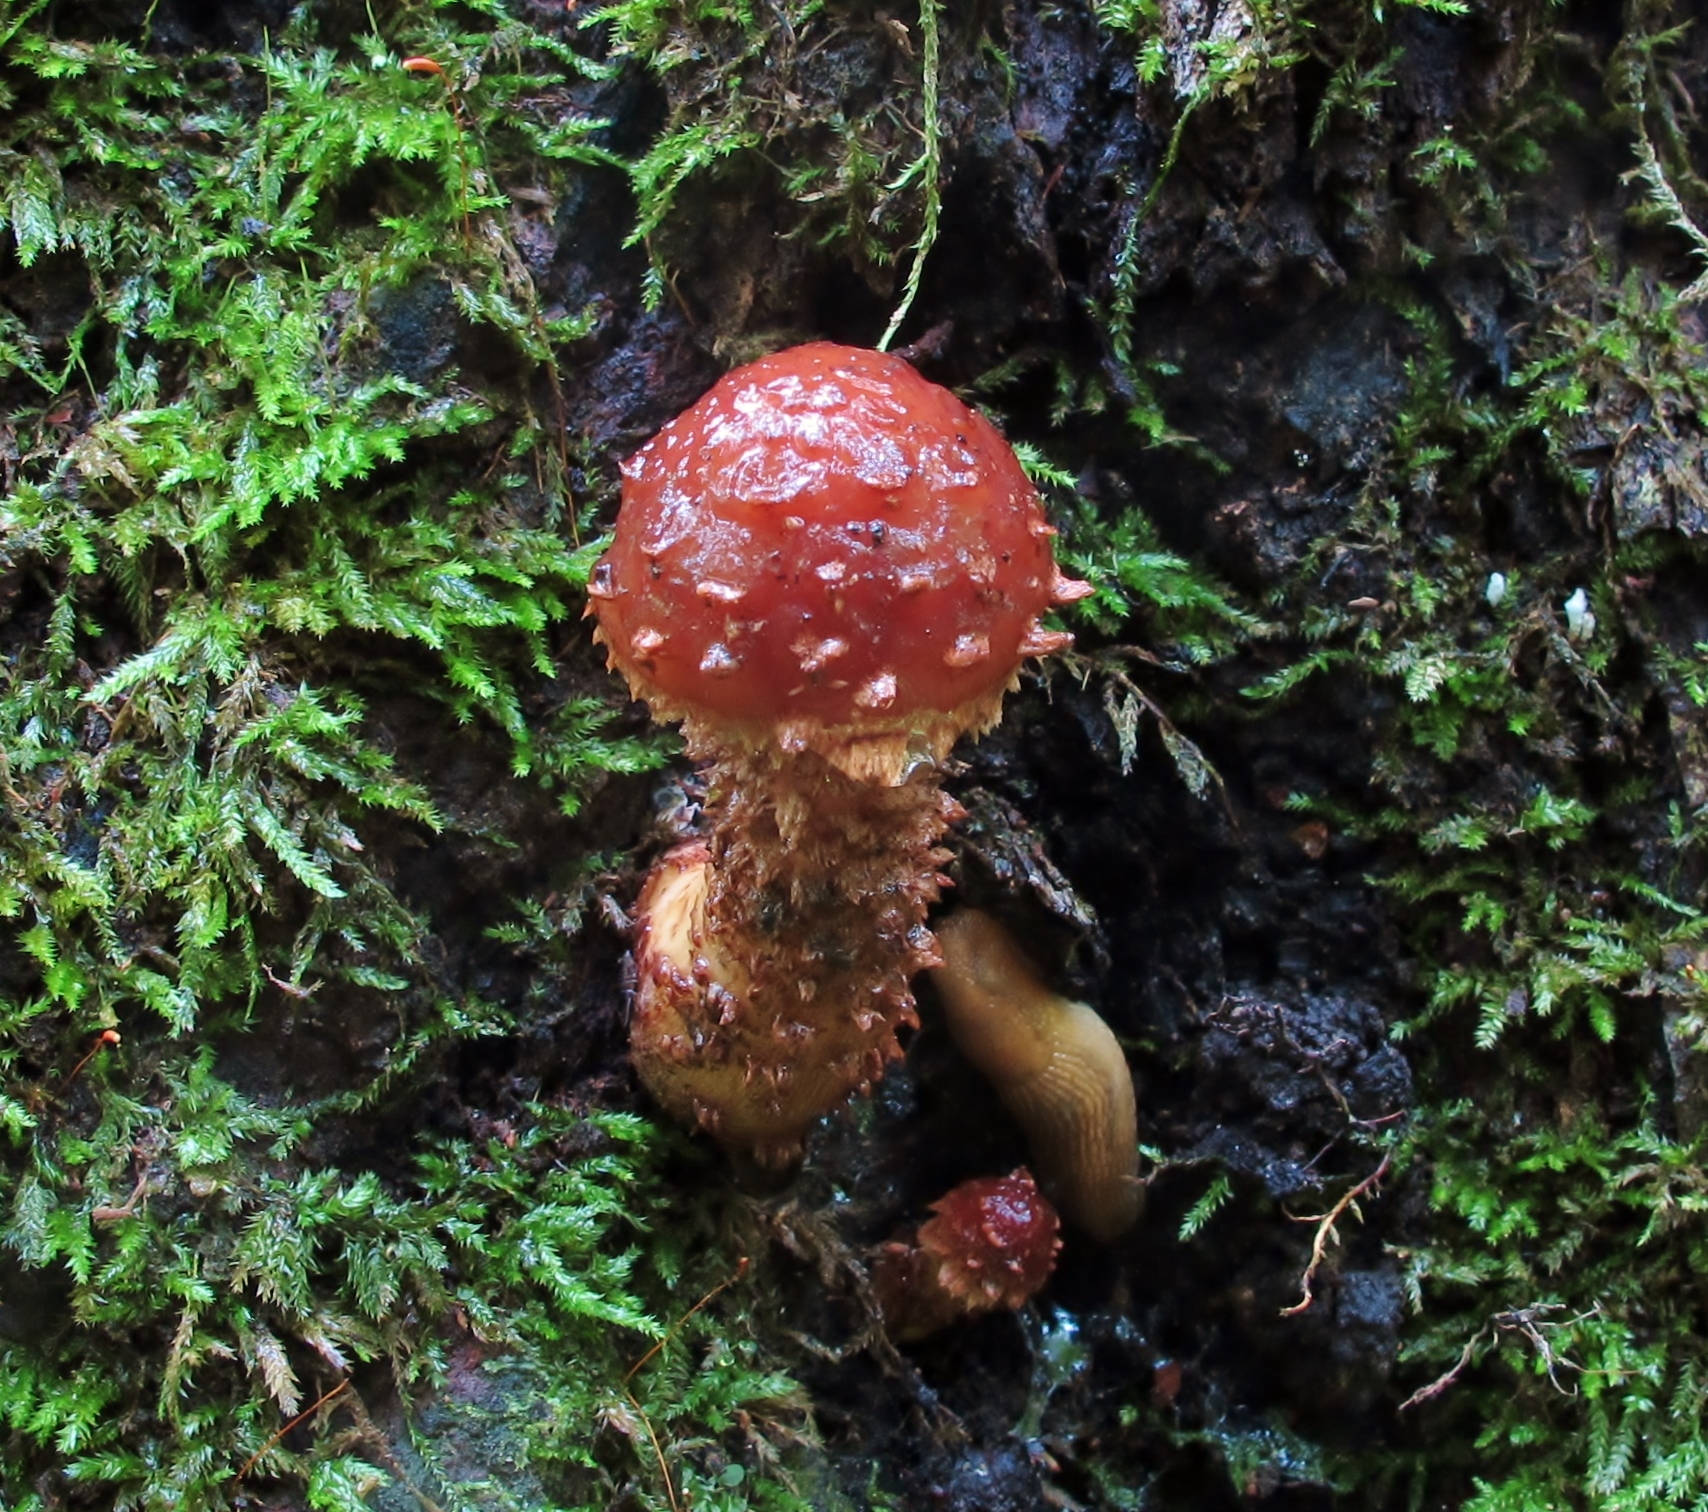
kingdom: Fungi
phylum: Basidiomycota
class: Agaricomycetes
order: Agaricales
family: Tubariaceae
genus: Hemistropharia
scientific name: Hemistropharia albocrenulata
